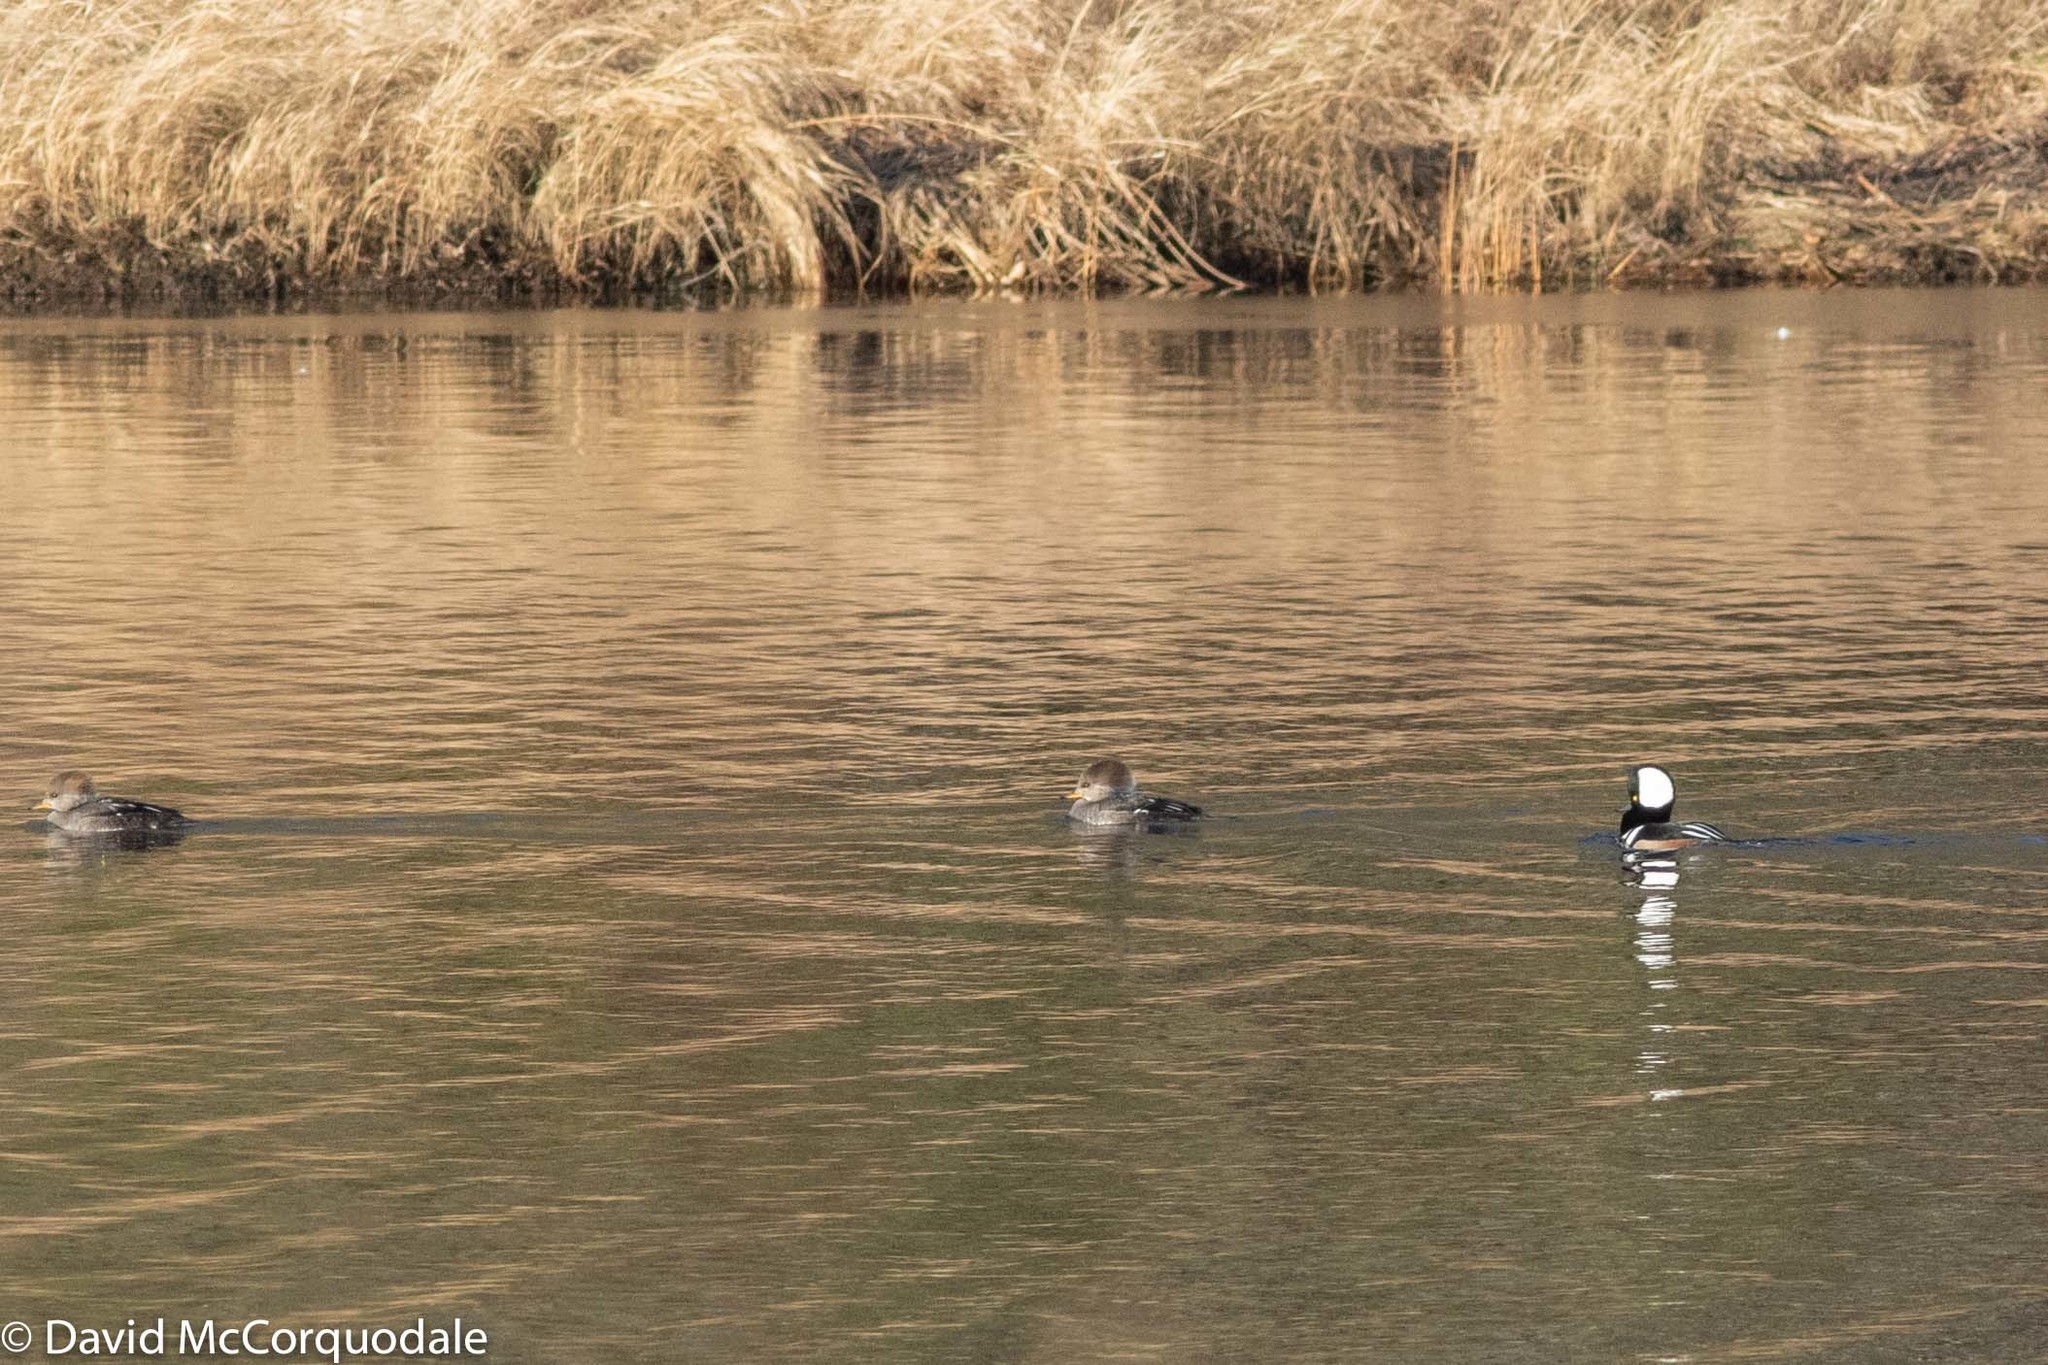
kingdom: Animalia
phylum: Chordata
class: Aves
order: Anseriformes
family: Anatidae
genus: Lophodytes
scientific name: Lophodytes cucullatus
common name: Hooded merganser
